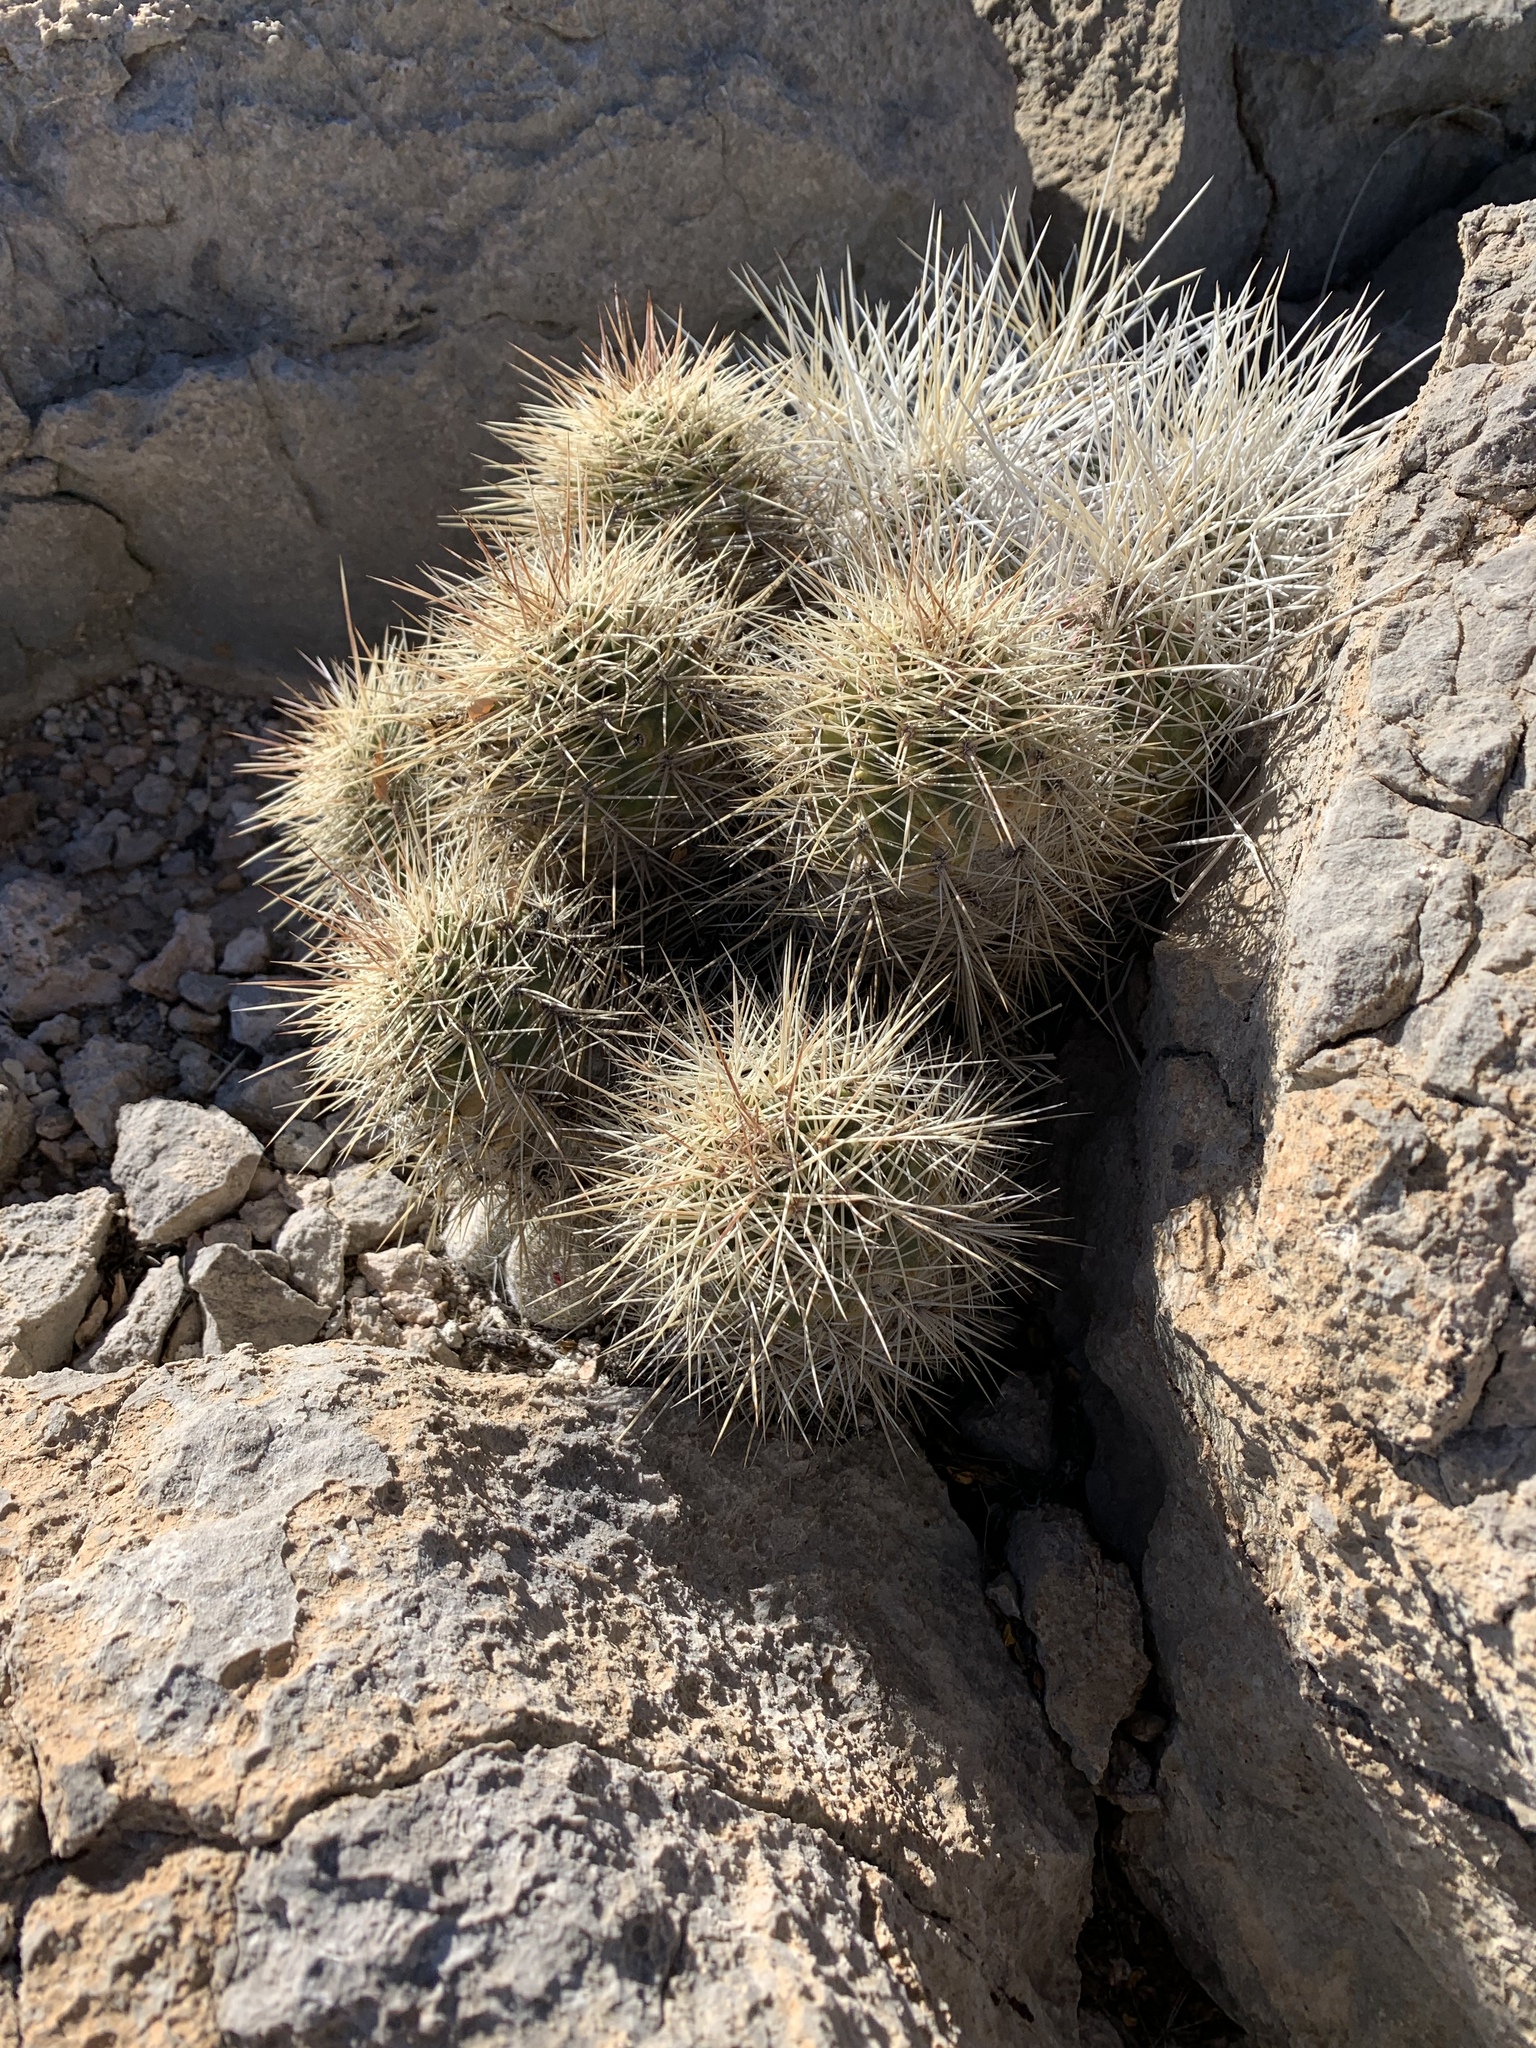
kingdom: Plantae
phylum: Tracheophyta
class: Magnoliopsida
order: Caryophyllales
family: Cactaceae
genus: Echinocereus
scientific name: Echinocereus coccineus
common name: Scarlet hedgehog cactus
